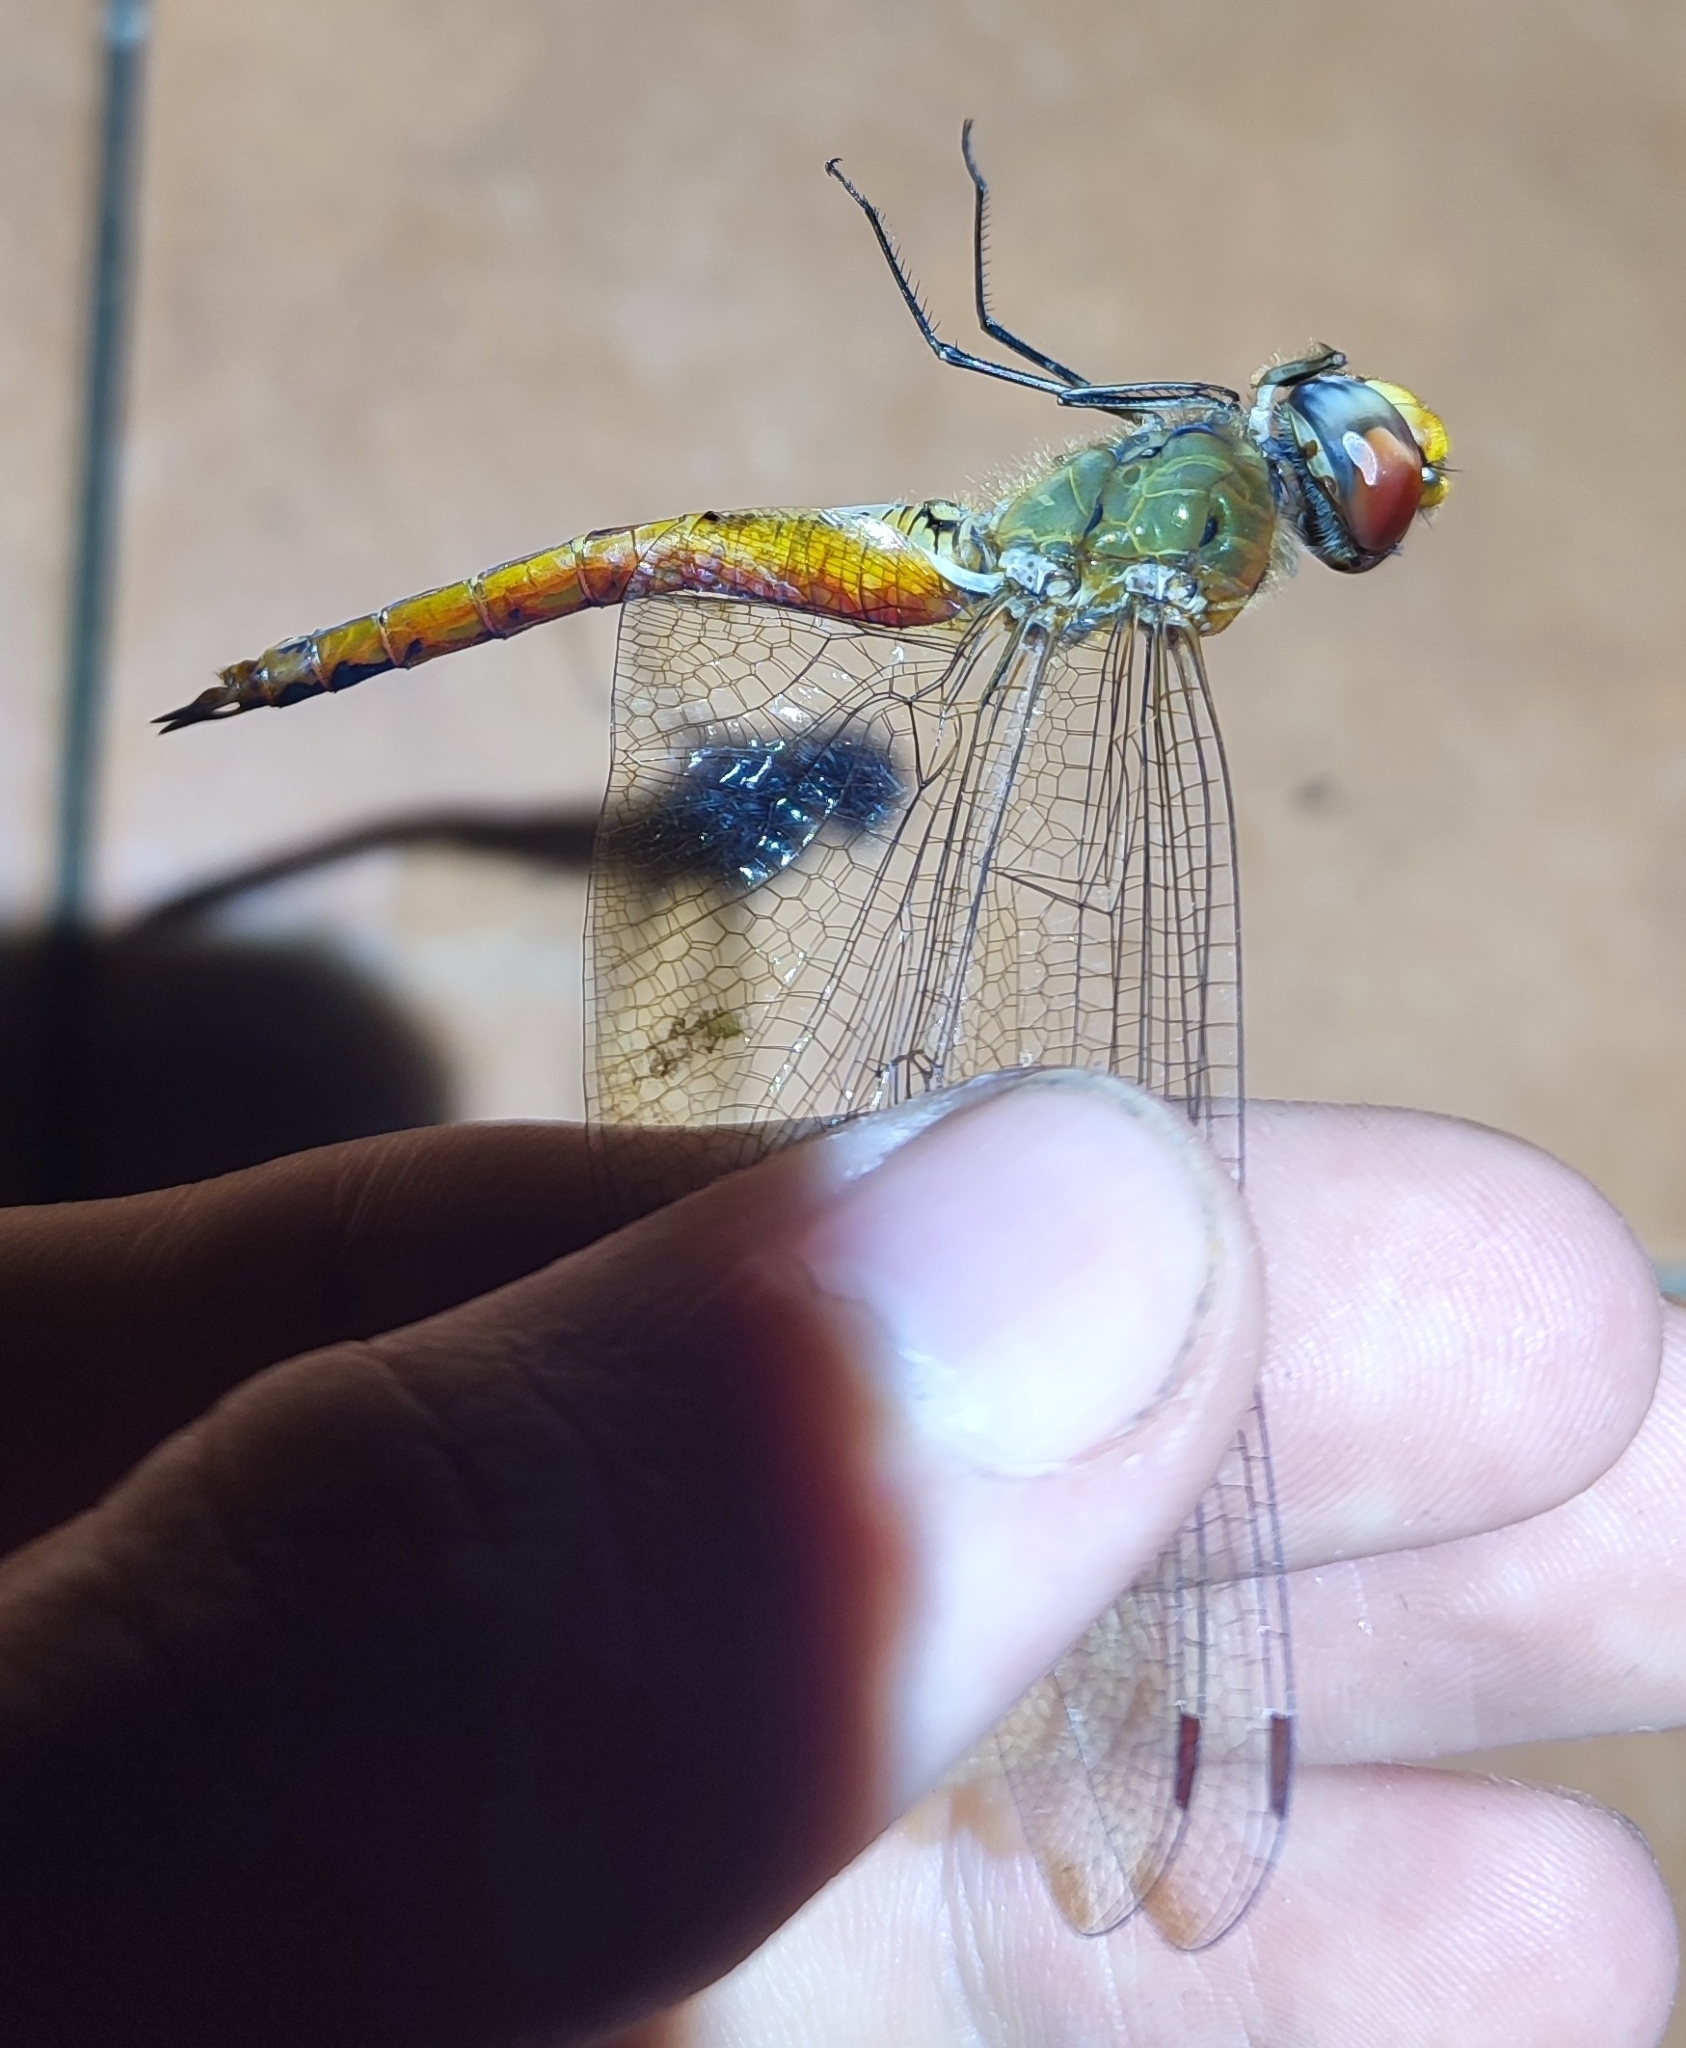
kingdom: Animalia
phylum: Arthropoda
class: Insecta
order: Odonata
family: Libellulidae
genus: Pantala
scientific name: Pantala flavescens
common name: Wandering glider
